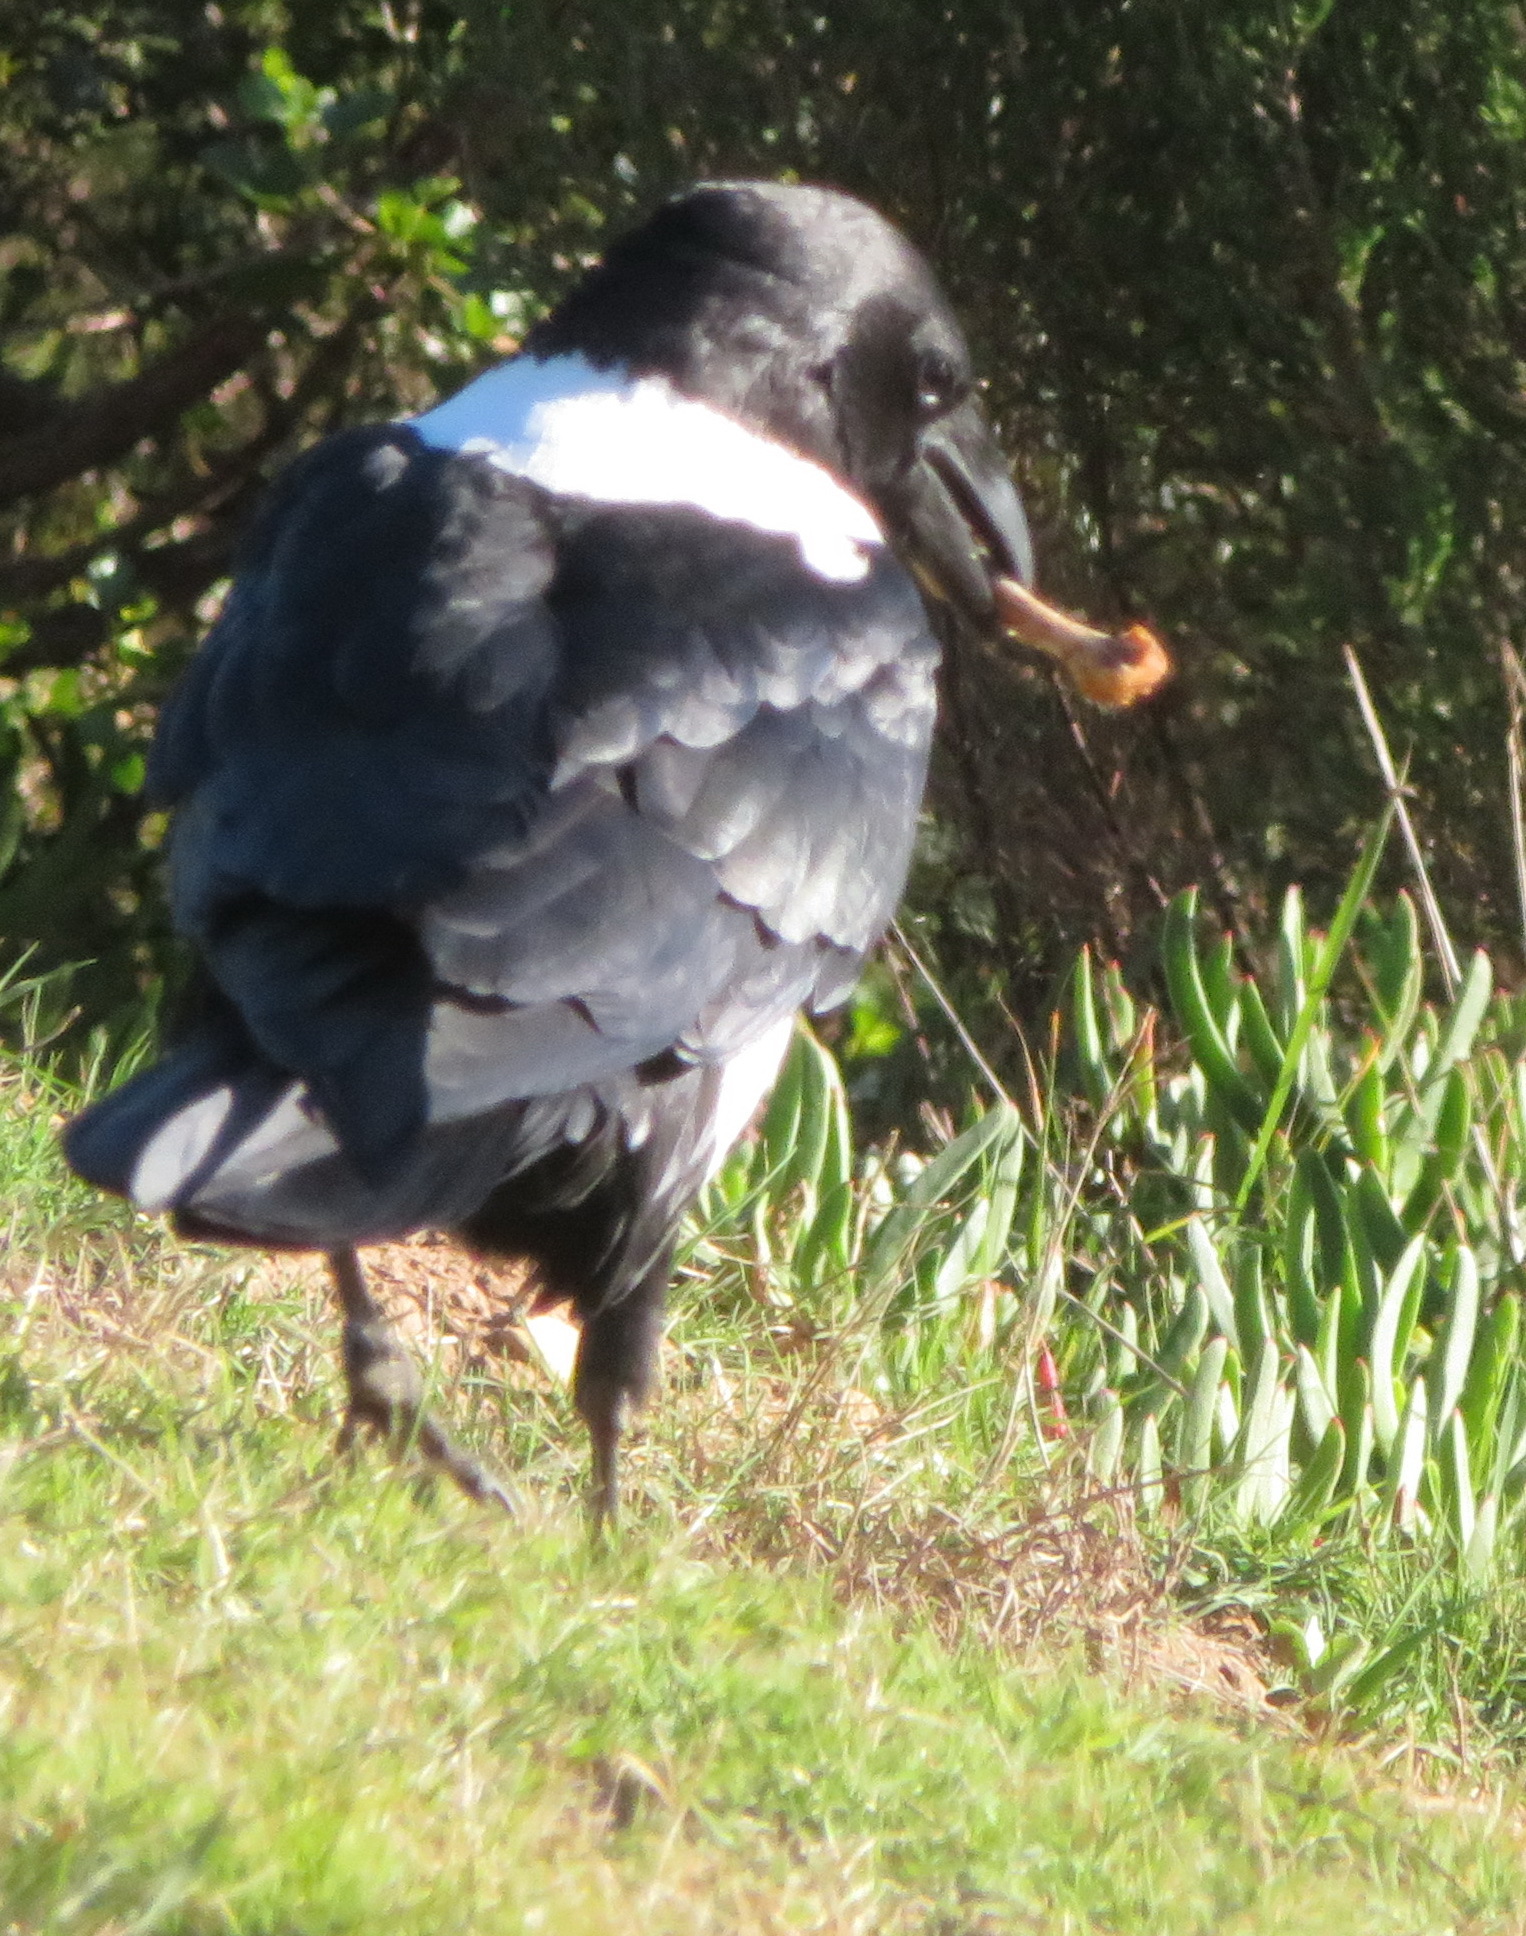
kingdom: Animalia
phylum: Chordata
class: Aves
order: Passeriformes
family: Corvidae
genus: Corvus
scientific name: Corvus albus
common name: Pied crow
